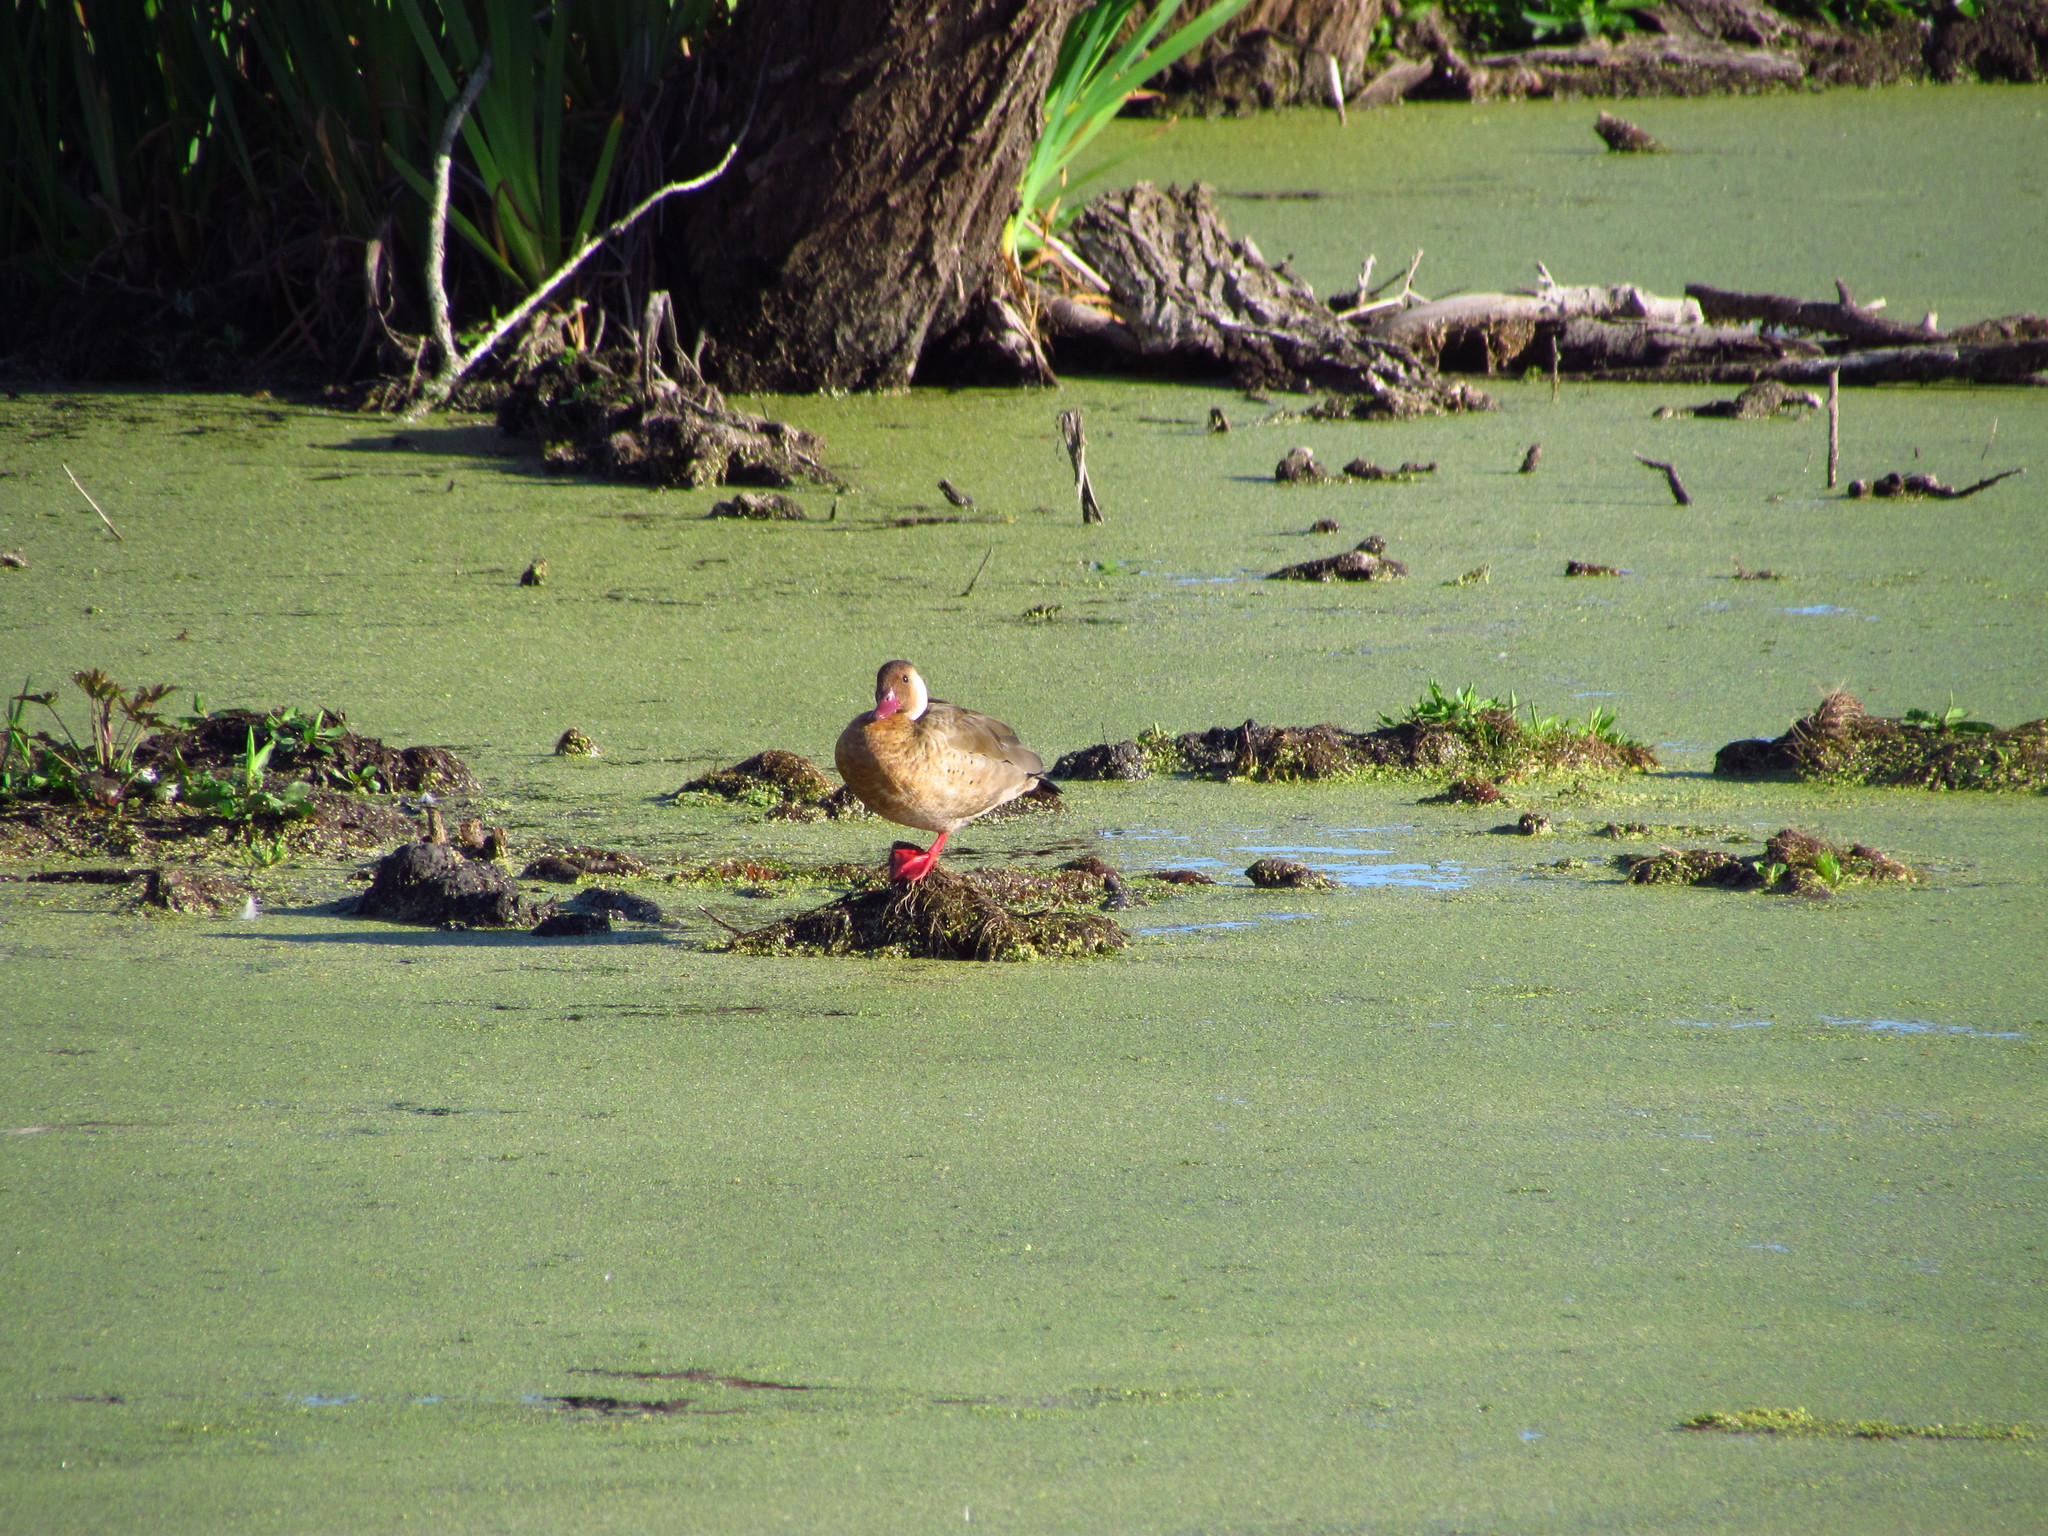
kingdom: Animalia
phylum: Chordata
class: Aves
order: Anseriformes
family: Anatidae
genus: Amazonetta
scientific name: Amazonetta brasiliensis
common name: Brazilian teal
